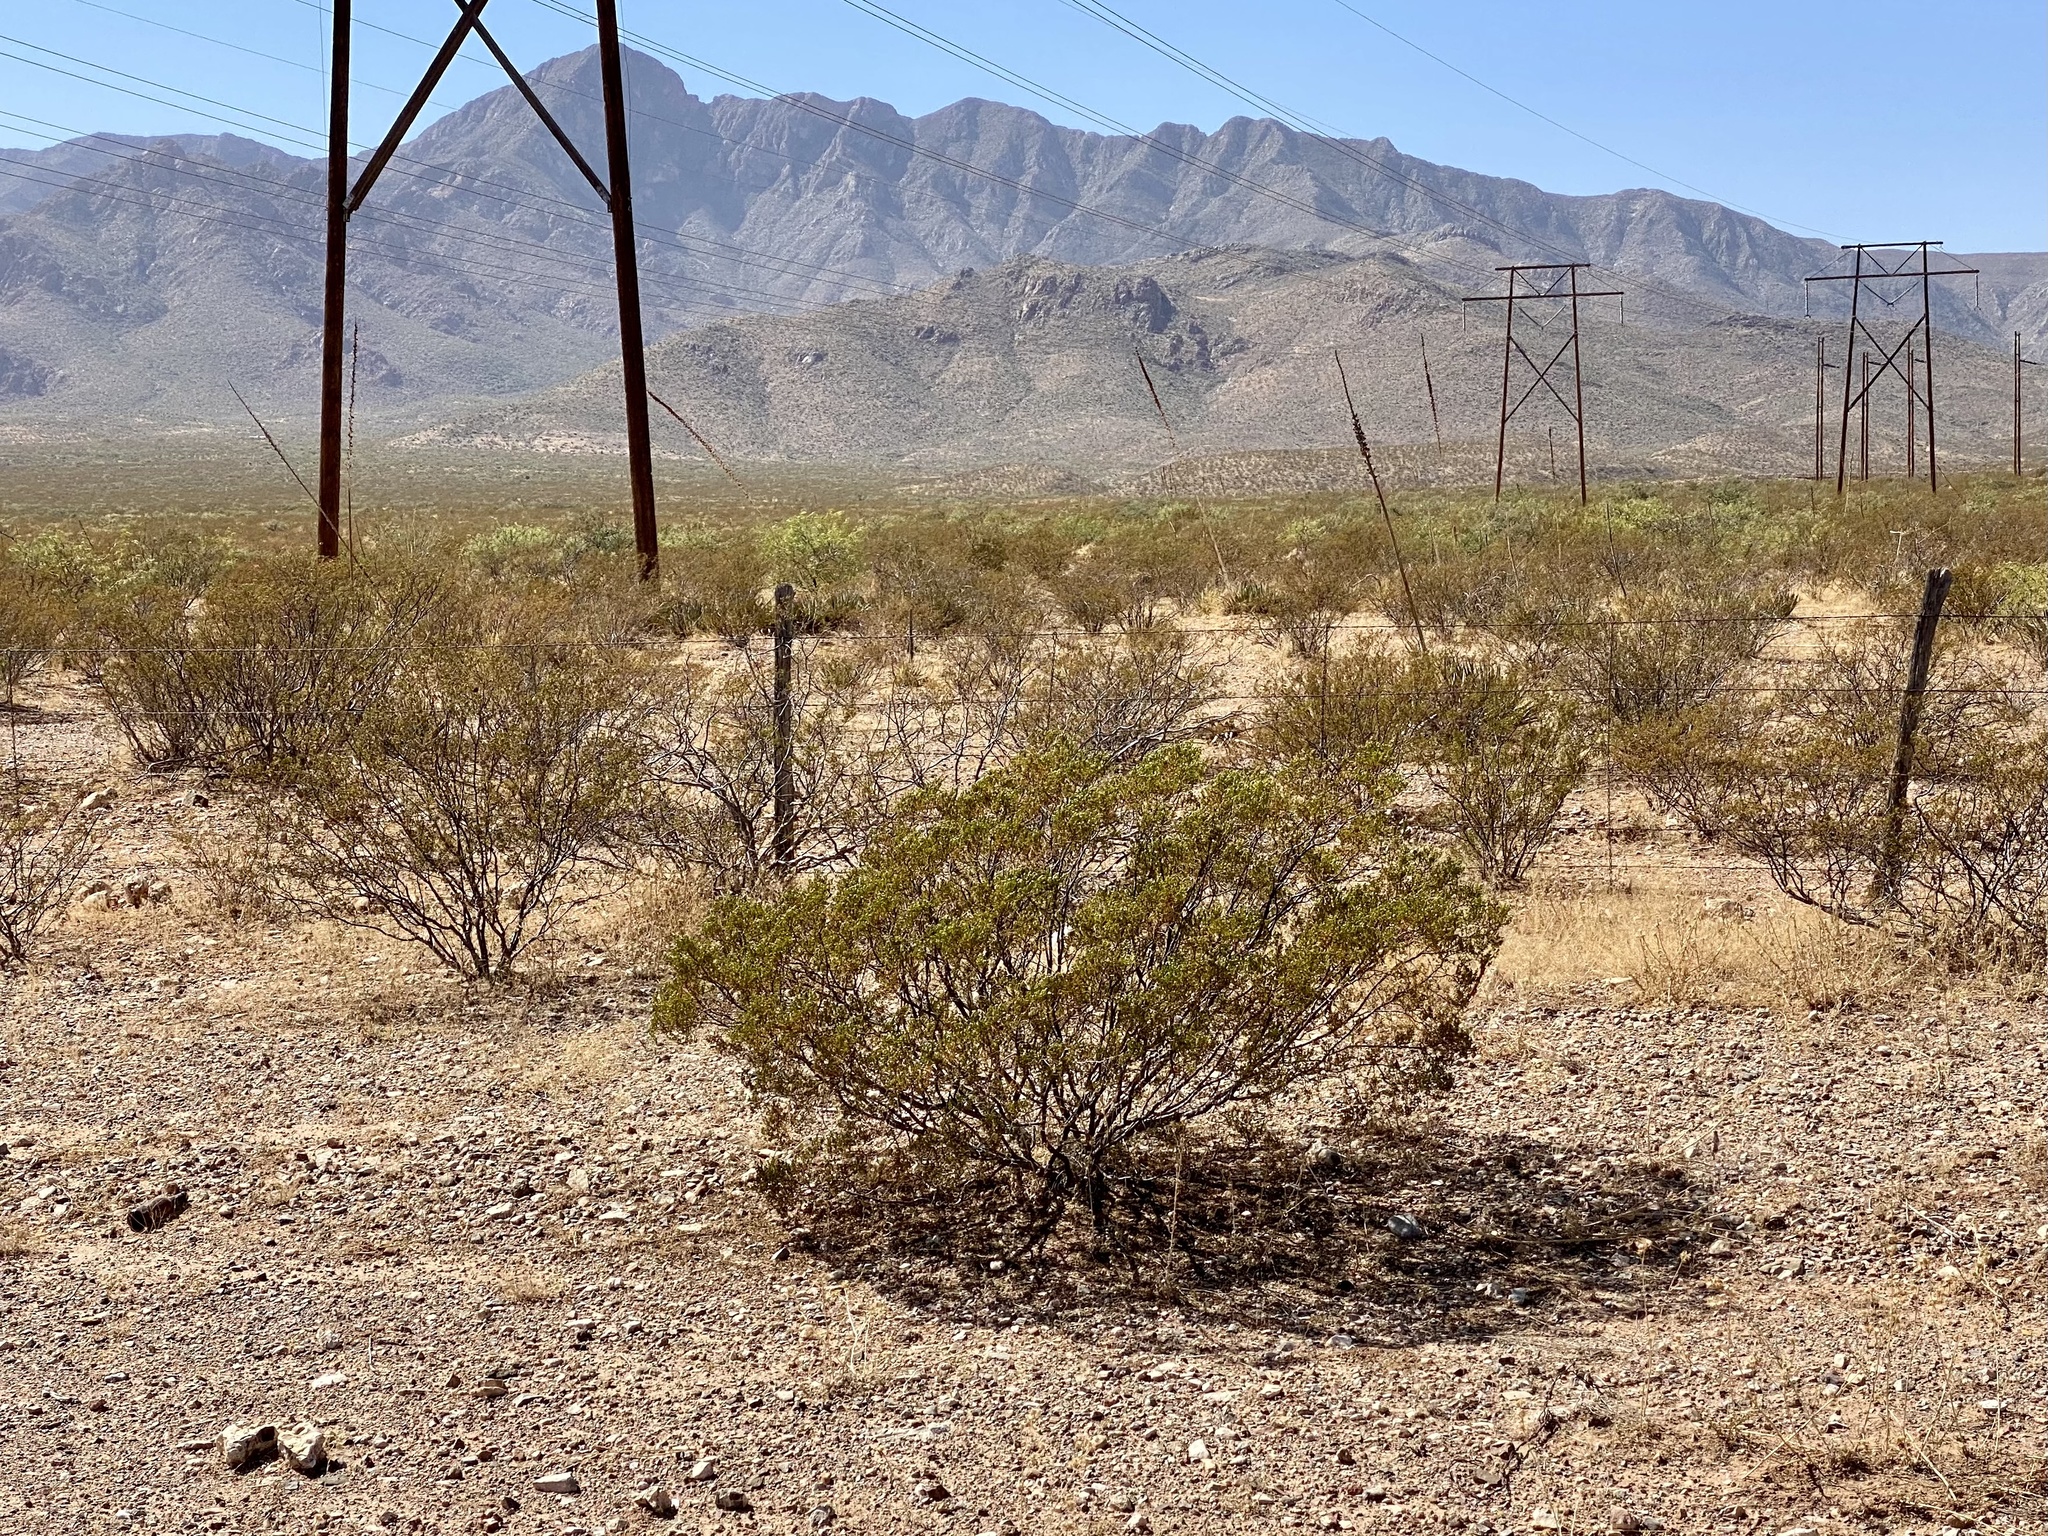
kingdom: Plantae
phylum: Tracheophyta
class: Magnoliopsida
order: Zygophyllales
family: Zygophyllaceae
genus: Larrea
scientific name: Larrea tridentata
